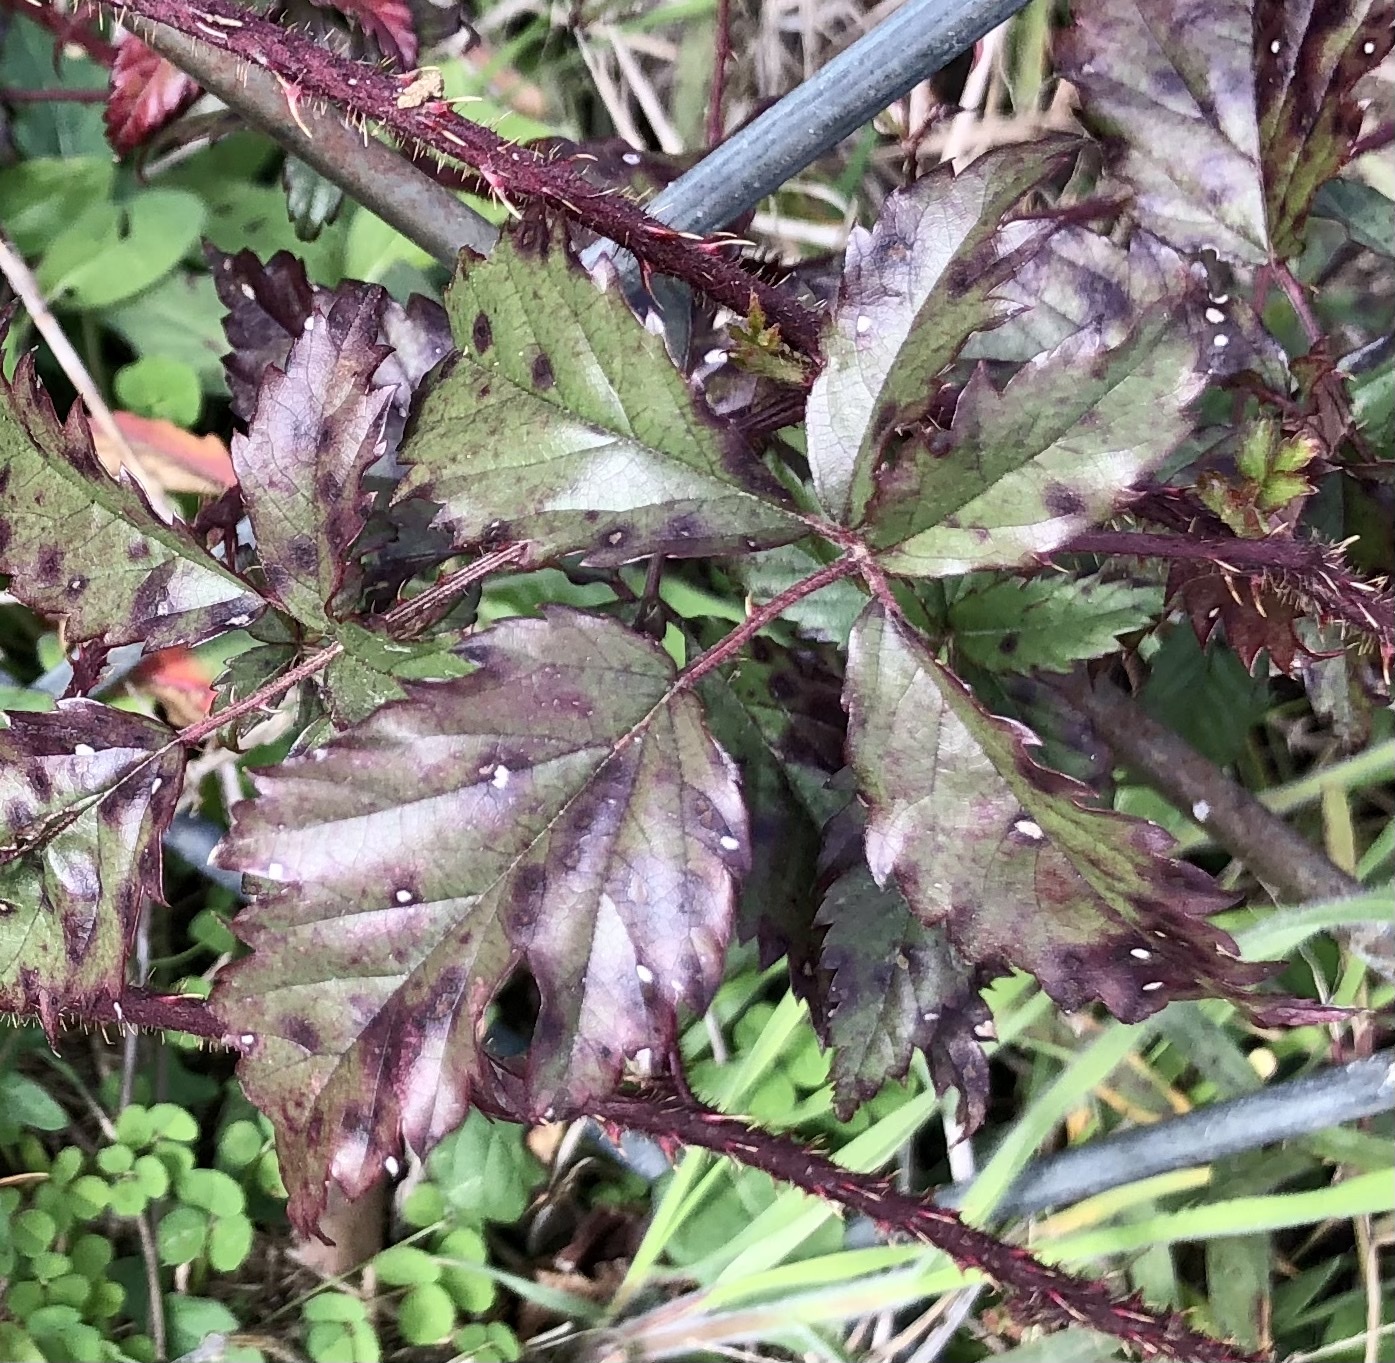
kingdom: Plantae
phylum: Tracheophyta
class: Magnoliopsida
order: Rosales
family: Rosaceae
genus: Rubus
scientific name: Rubus trivialis
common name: Southern dewberry
